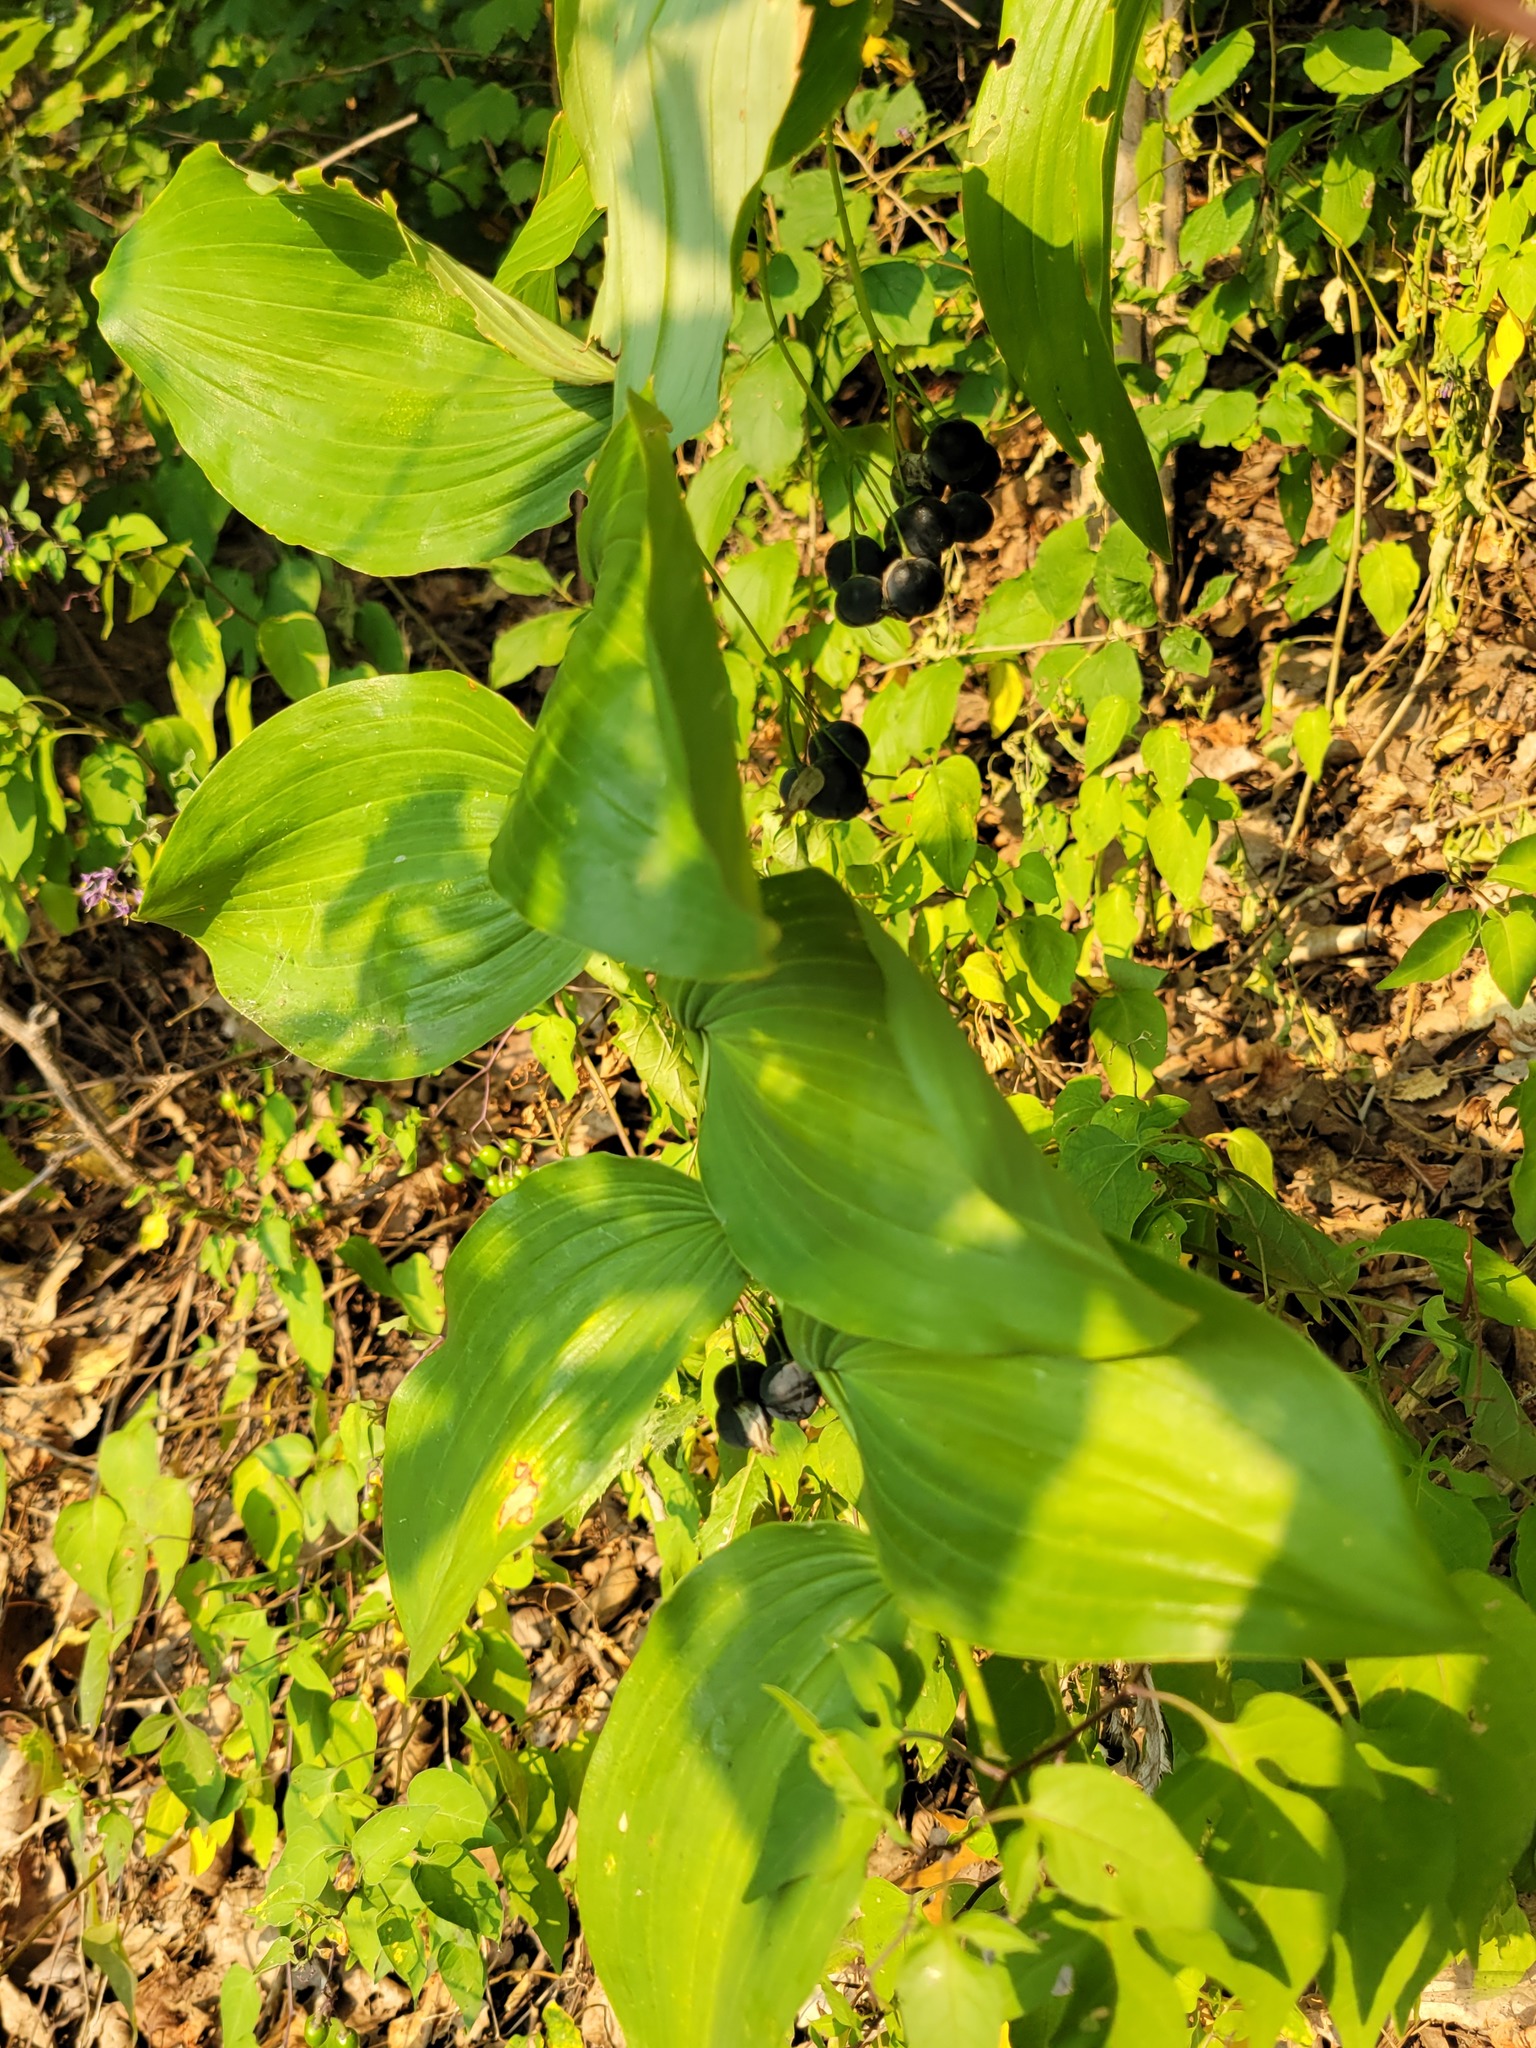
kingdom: Plantae
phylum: Tracheophyta
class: Liliopsida
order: Asparagales
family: Asparagaceae
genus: Polygonatum
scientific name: Polygonatum biflorum
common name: American solomon's-seal
